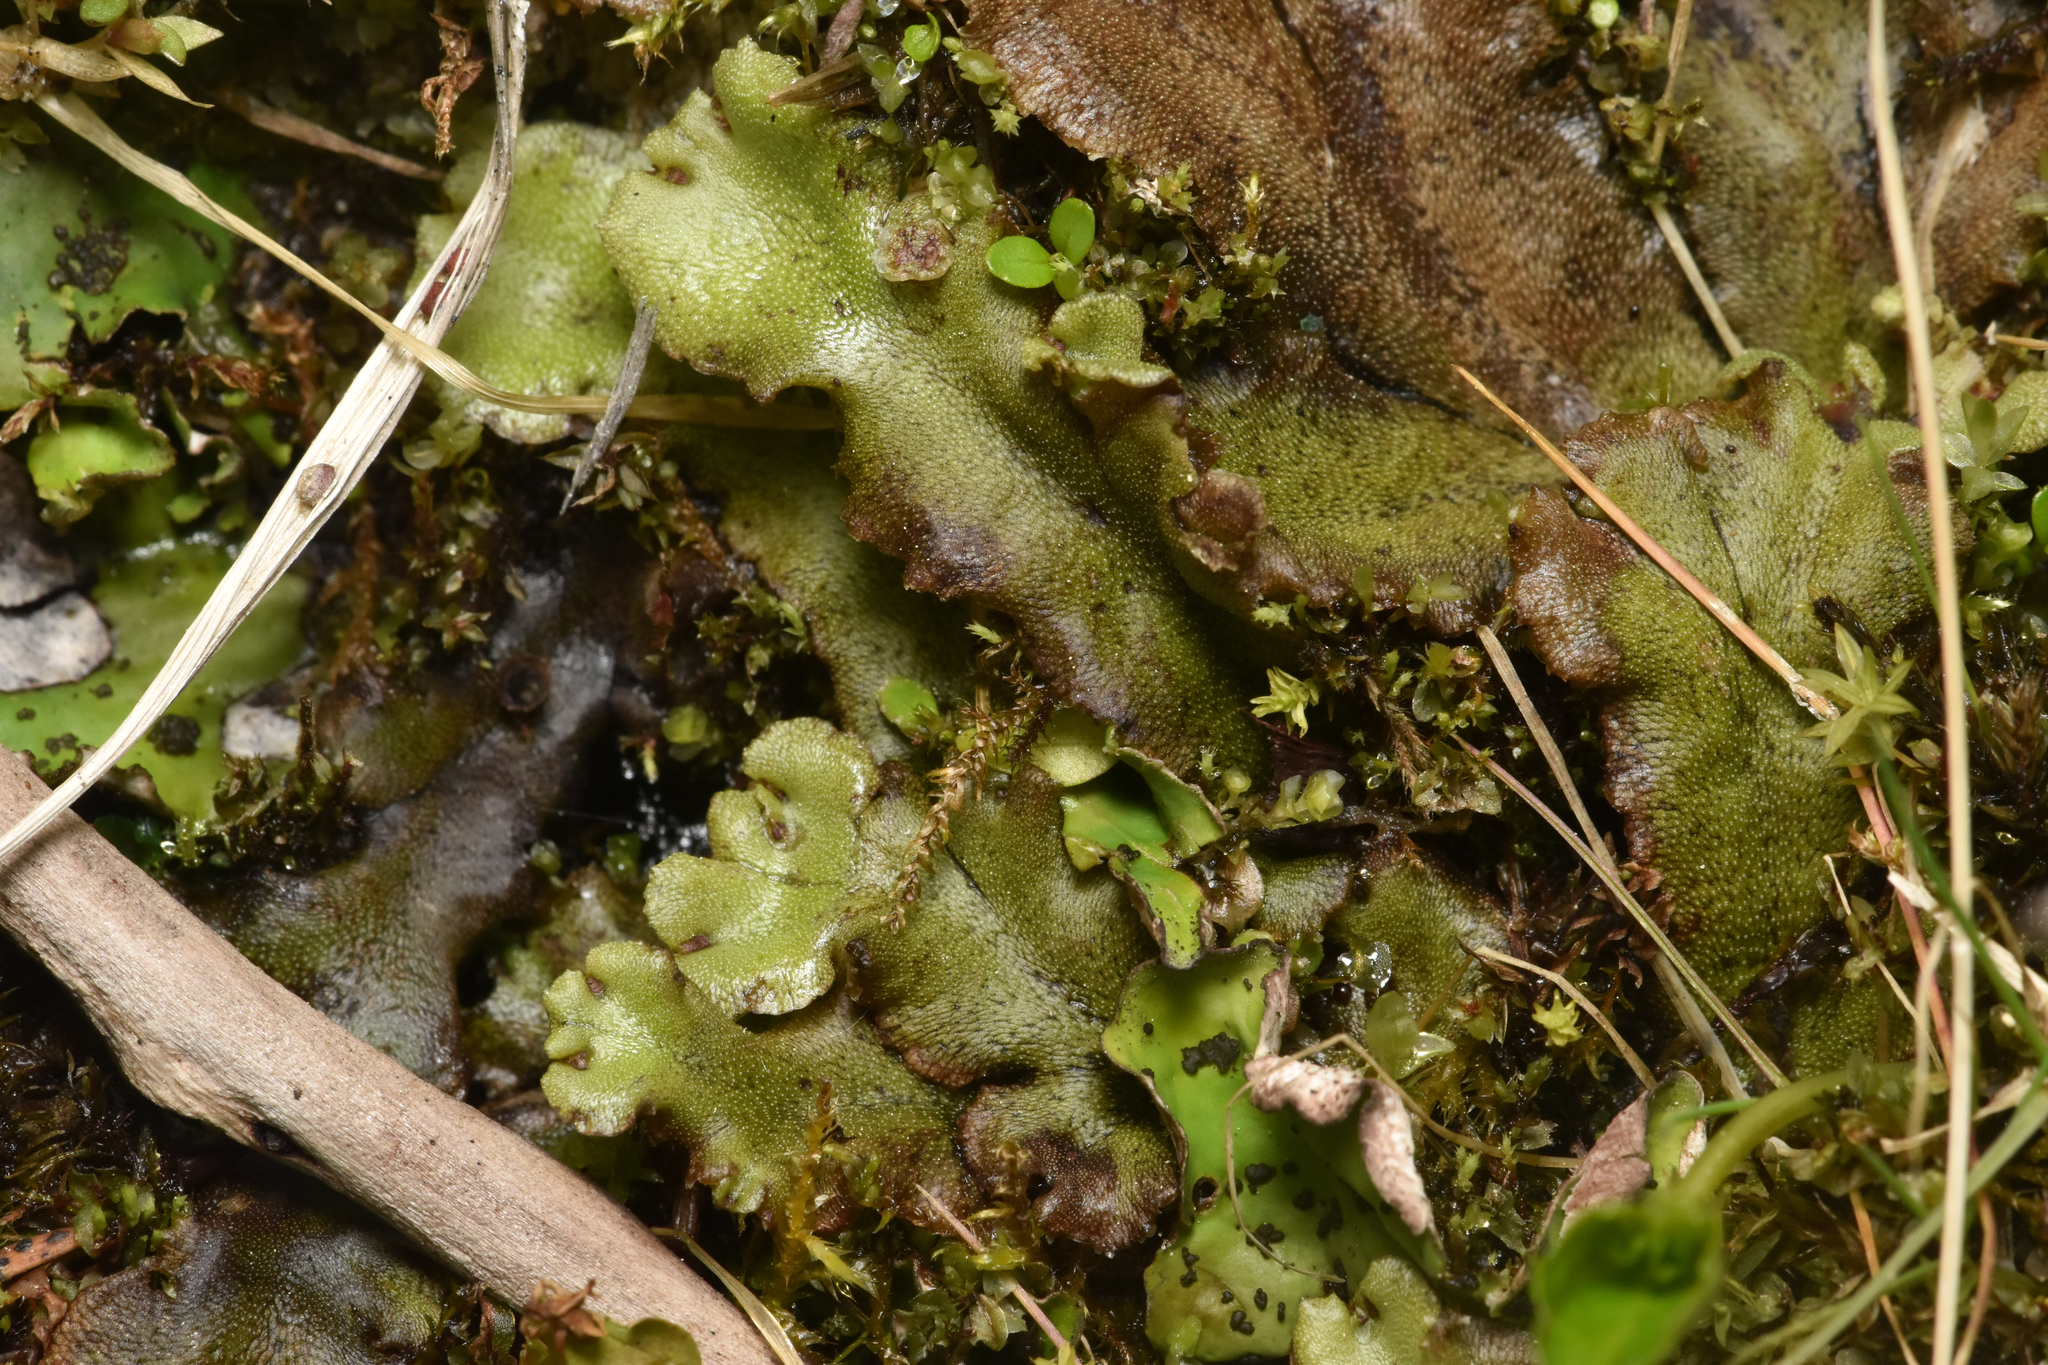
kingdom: Plantae
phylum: Marchantiophyta
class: Marchantiopsida
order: Marchantiales
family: Marchantiaceae
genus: Marchantia
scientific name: Marchantia polymorpha
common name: Common liverwort
